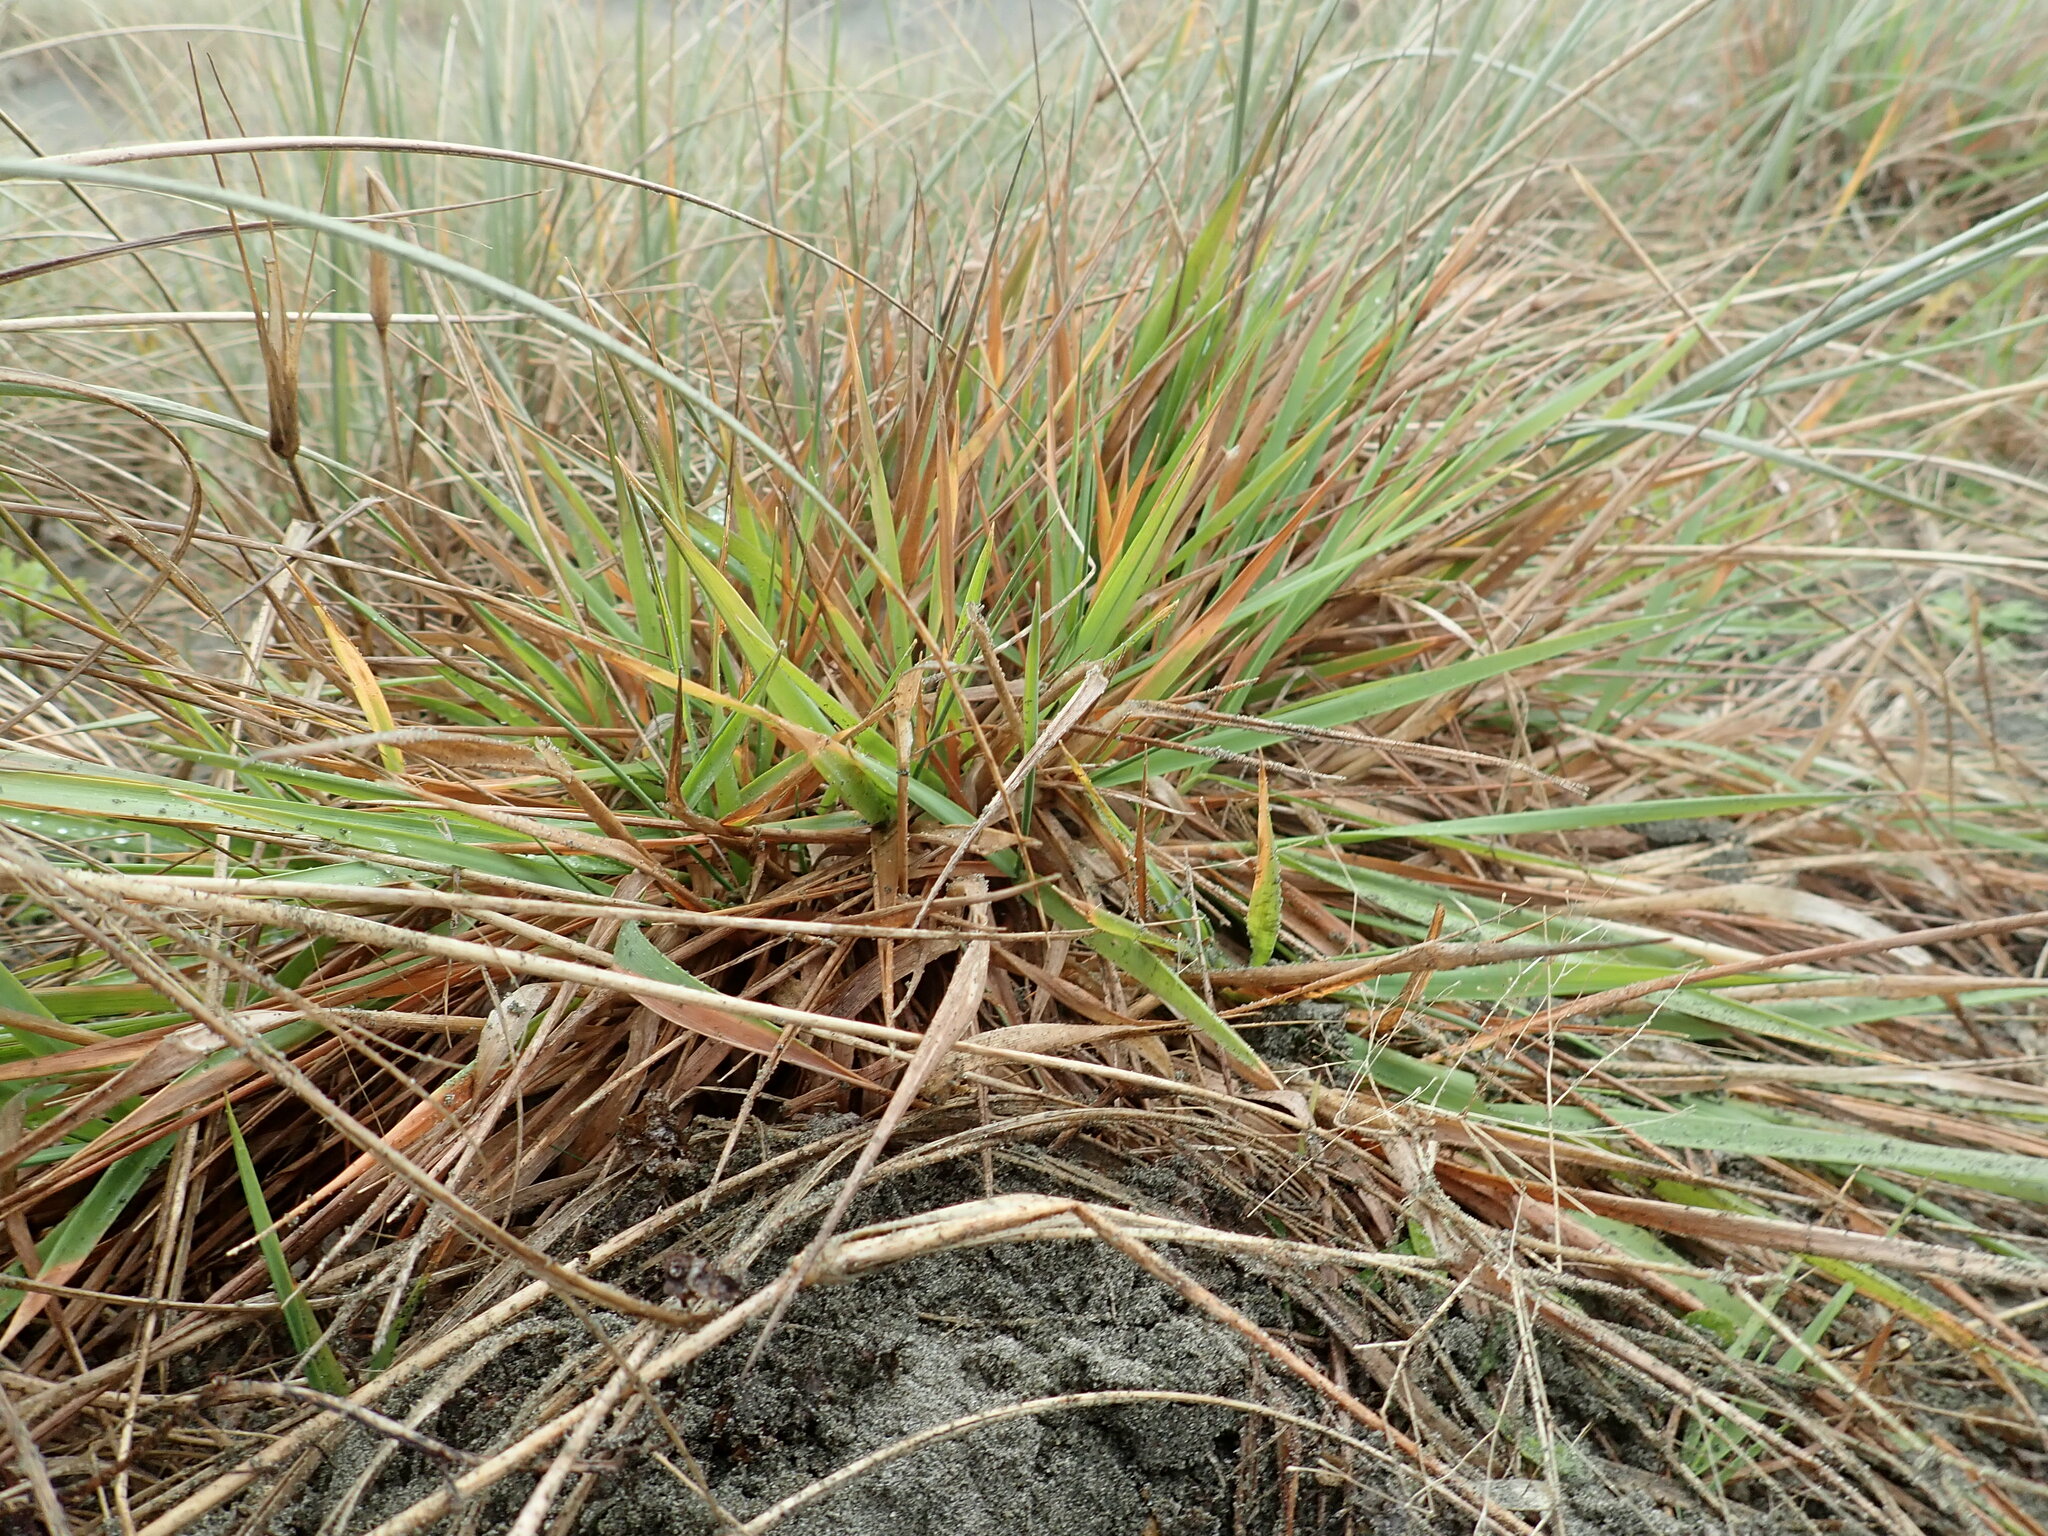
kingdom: Plantae
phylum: Tracheophyta
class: Liliopsida
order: Poales
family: Poaceae
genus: Lachnagrostis
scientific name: Lachnagrostis billardierei
